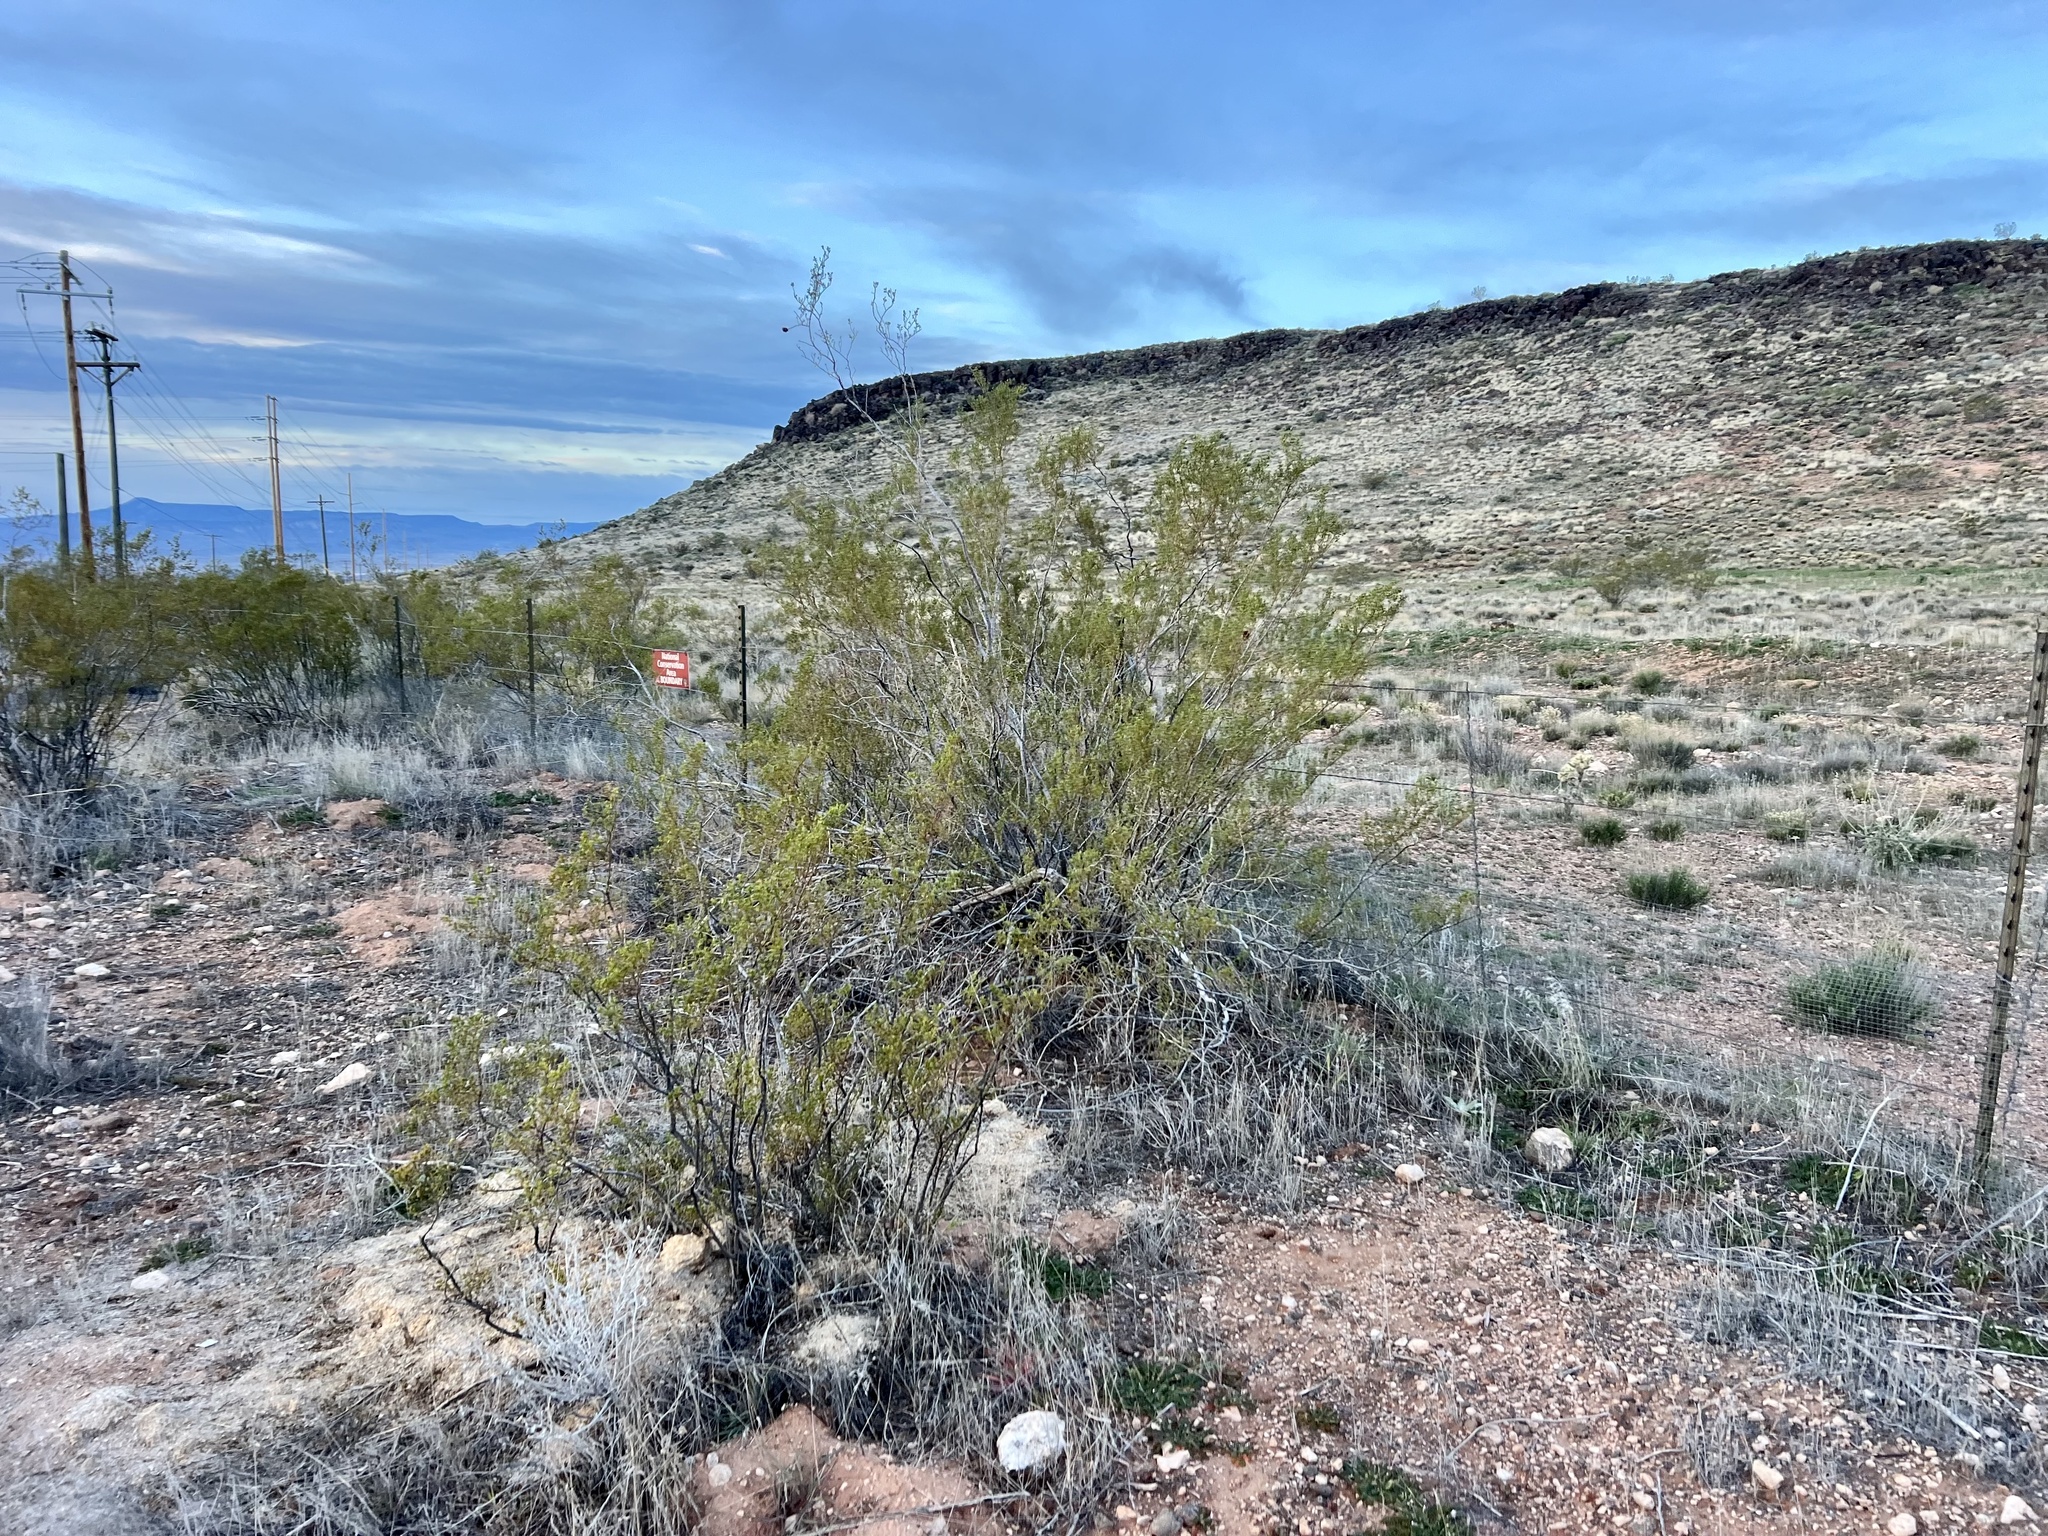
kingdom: Plantae
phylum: Tracheophyta
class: Magnoliopsida
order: Zygophyllales
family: Zygophyllaceae
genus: Larrea
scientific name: Larrea tridentata
